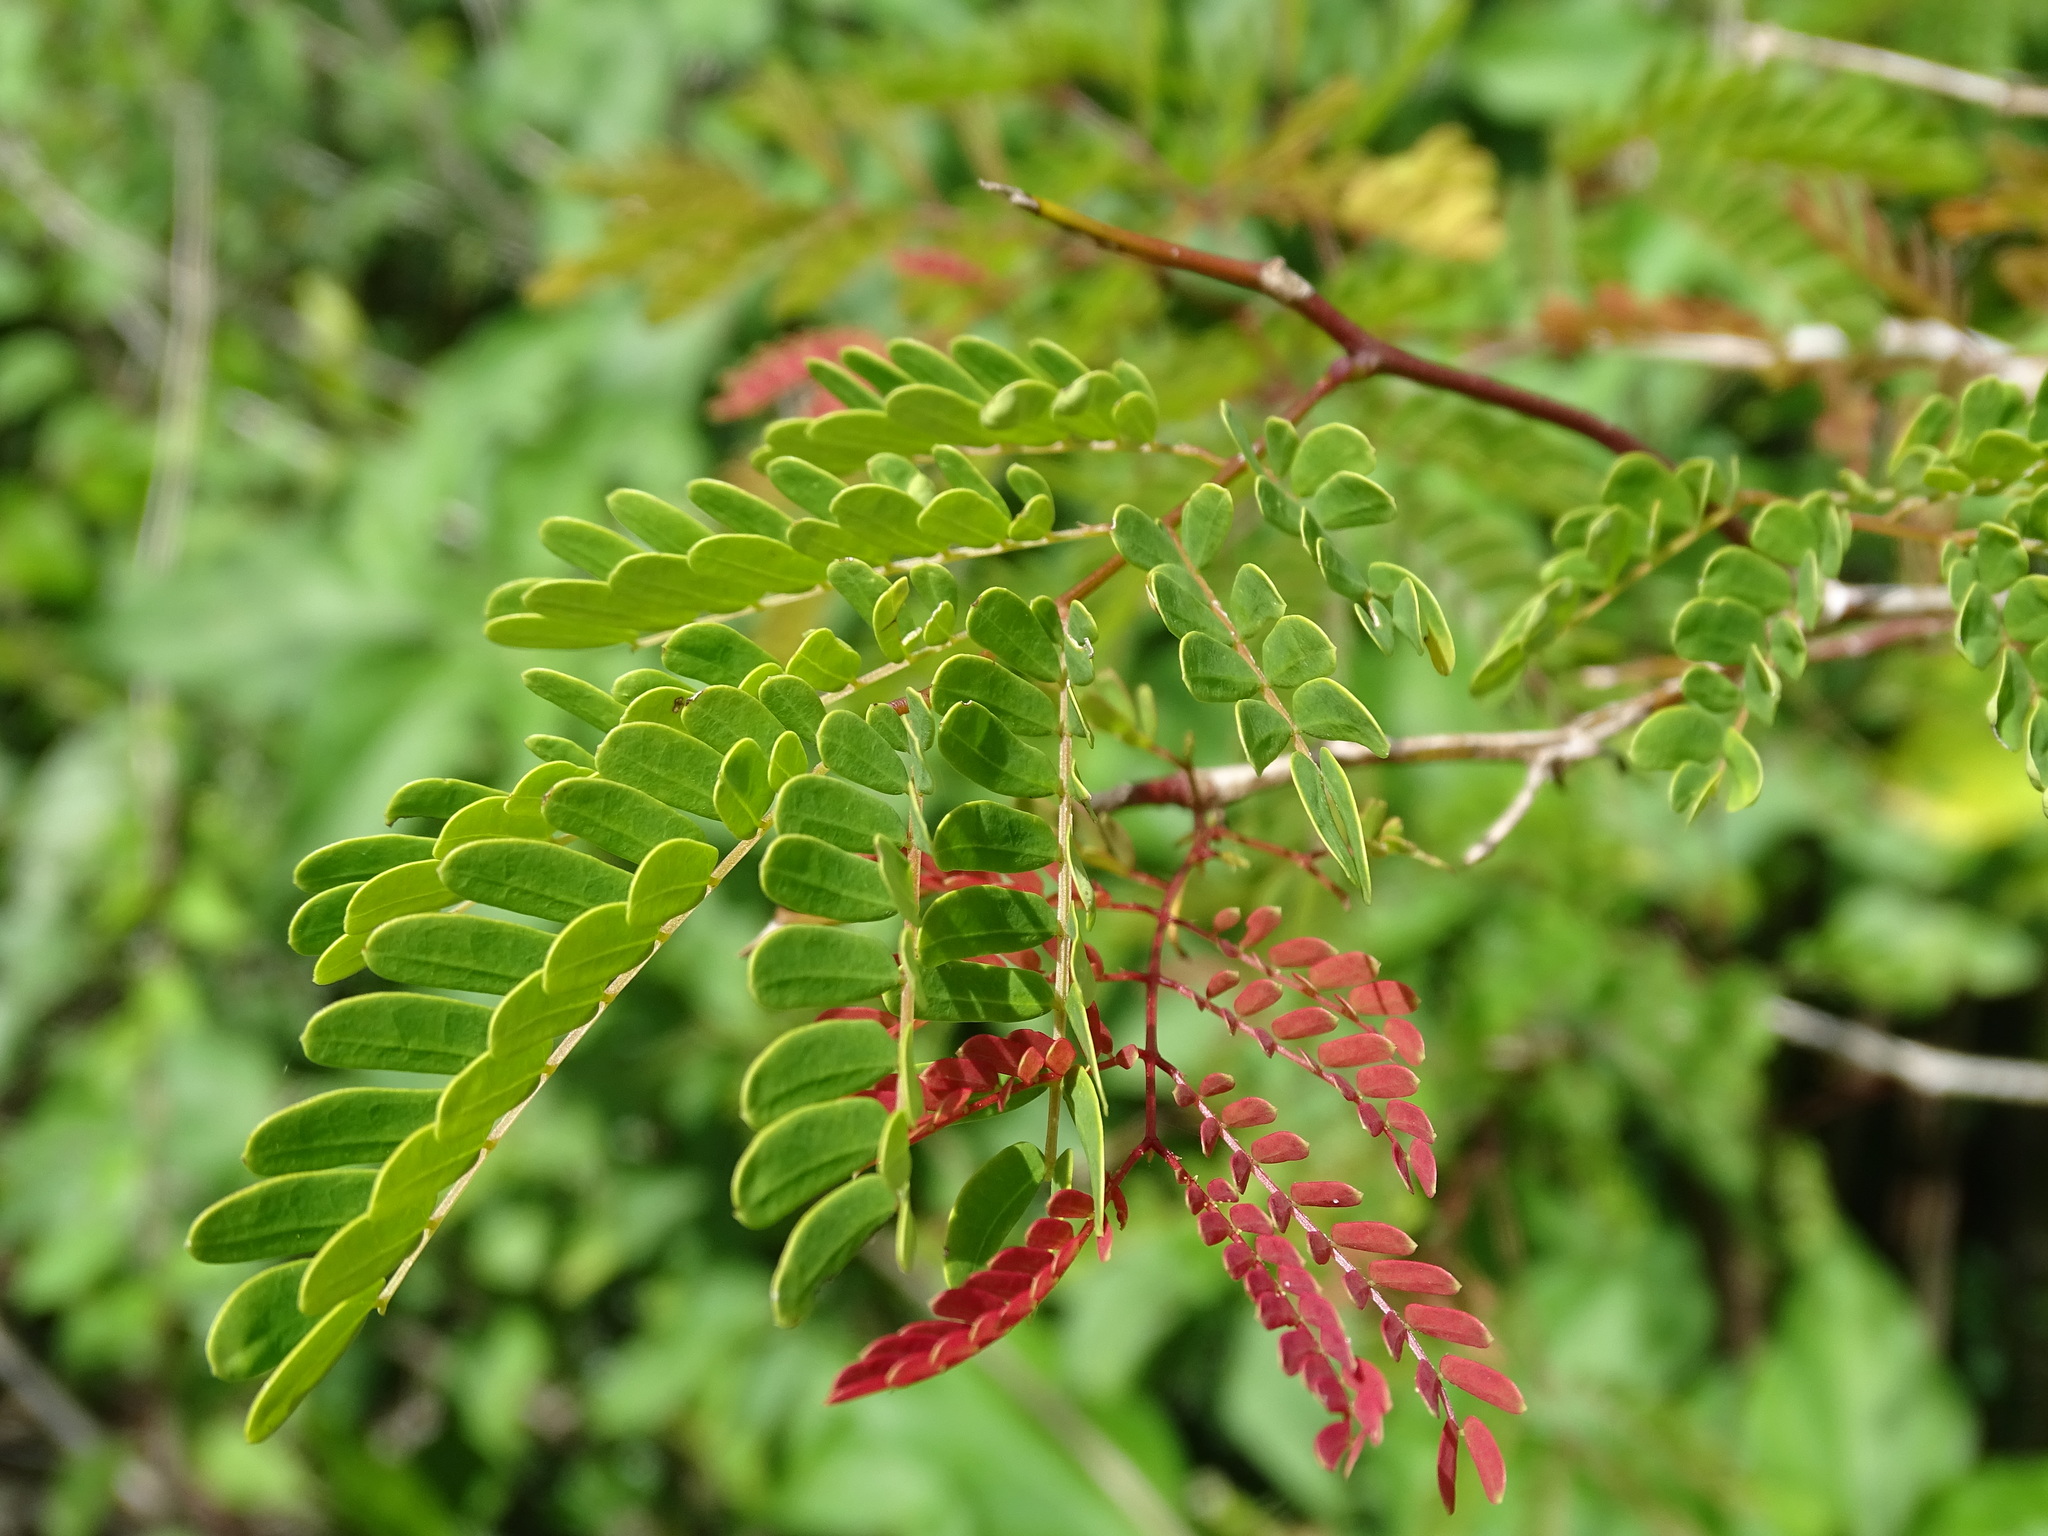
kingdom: Plantae
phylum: Tracheophyta
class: Magnoliopsida
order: Fabales
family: Fabaceae
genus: Senegalia
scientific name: Senegalia gaumeri
